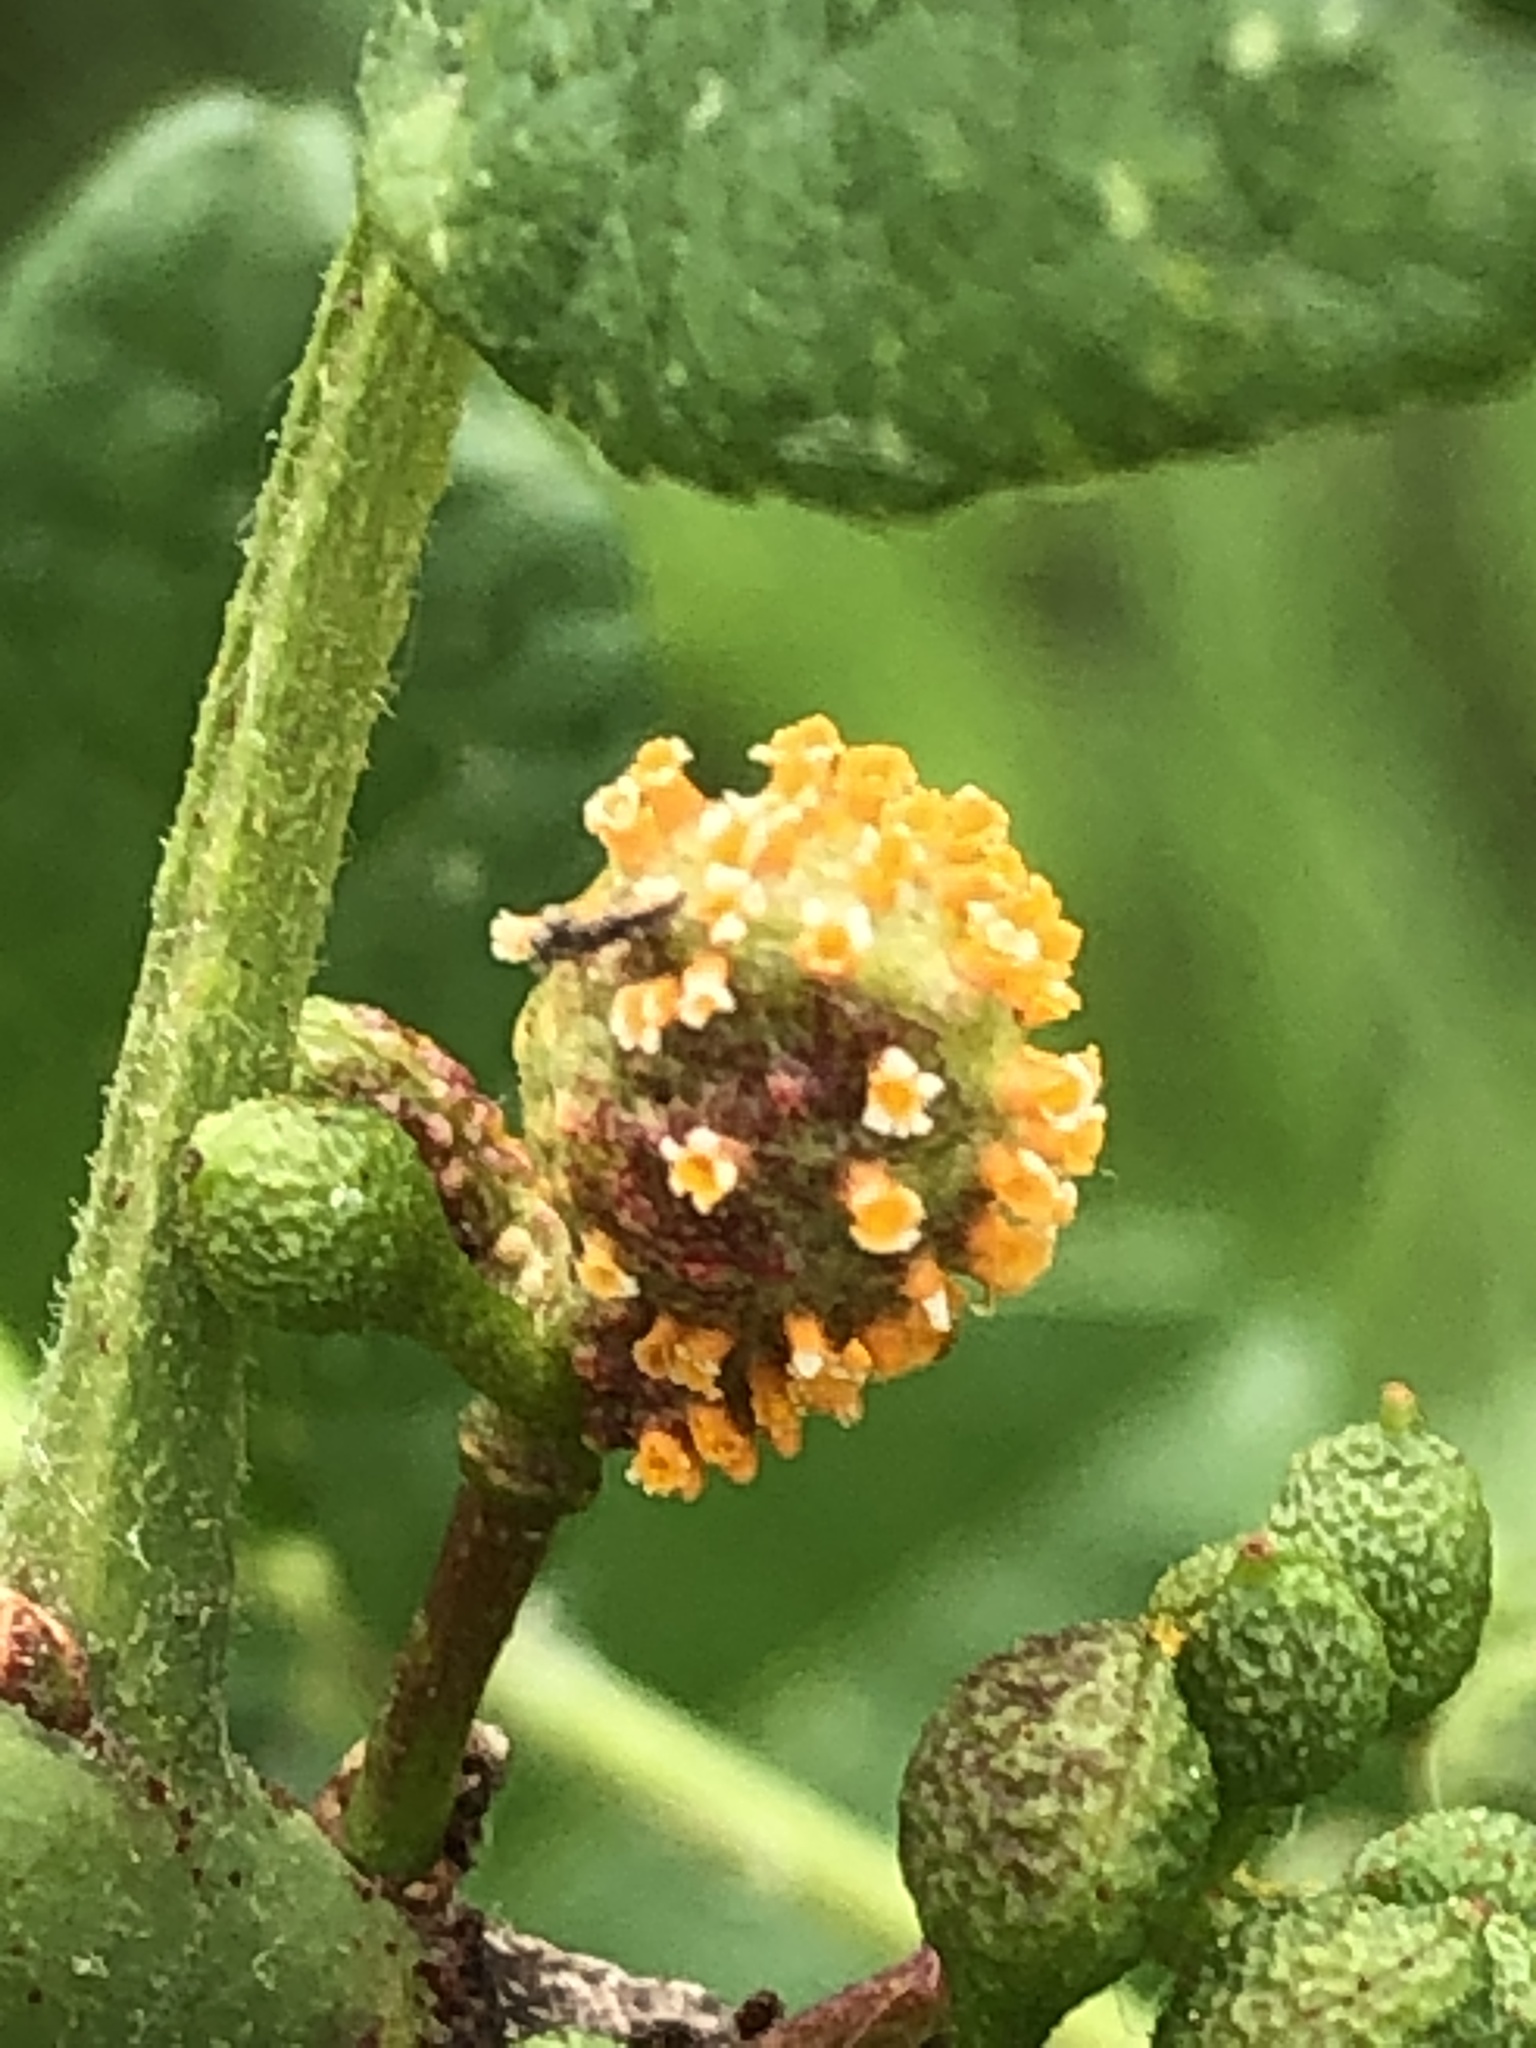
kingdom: Plantae
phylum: Tracheophyta
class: Magnoliopsida
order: Sapindales
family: Rutaceae
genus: Zanthoxylum
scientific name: Zanthoxylum americanum
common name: Northern prickly-ash
